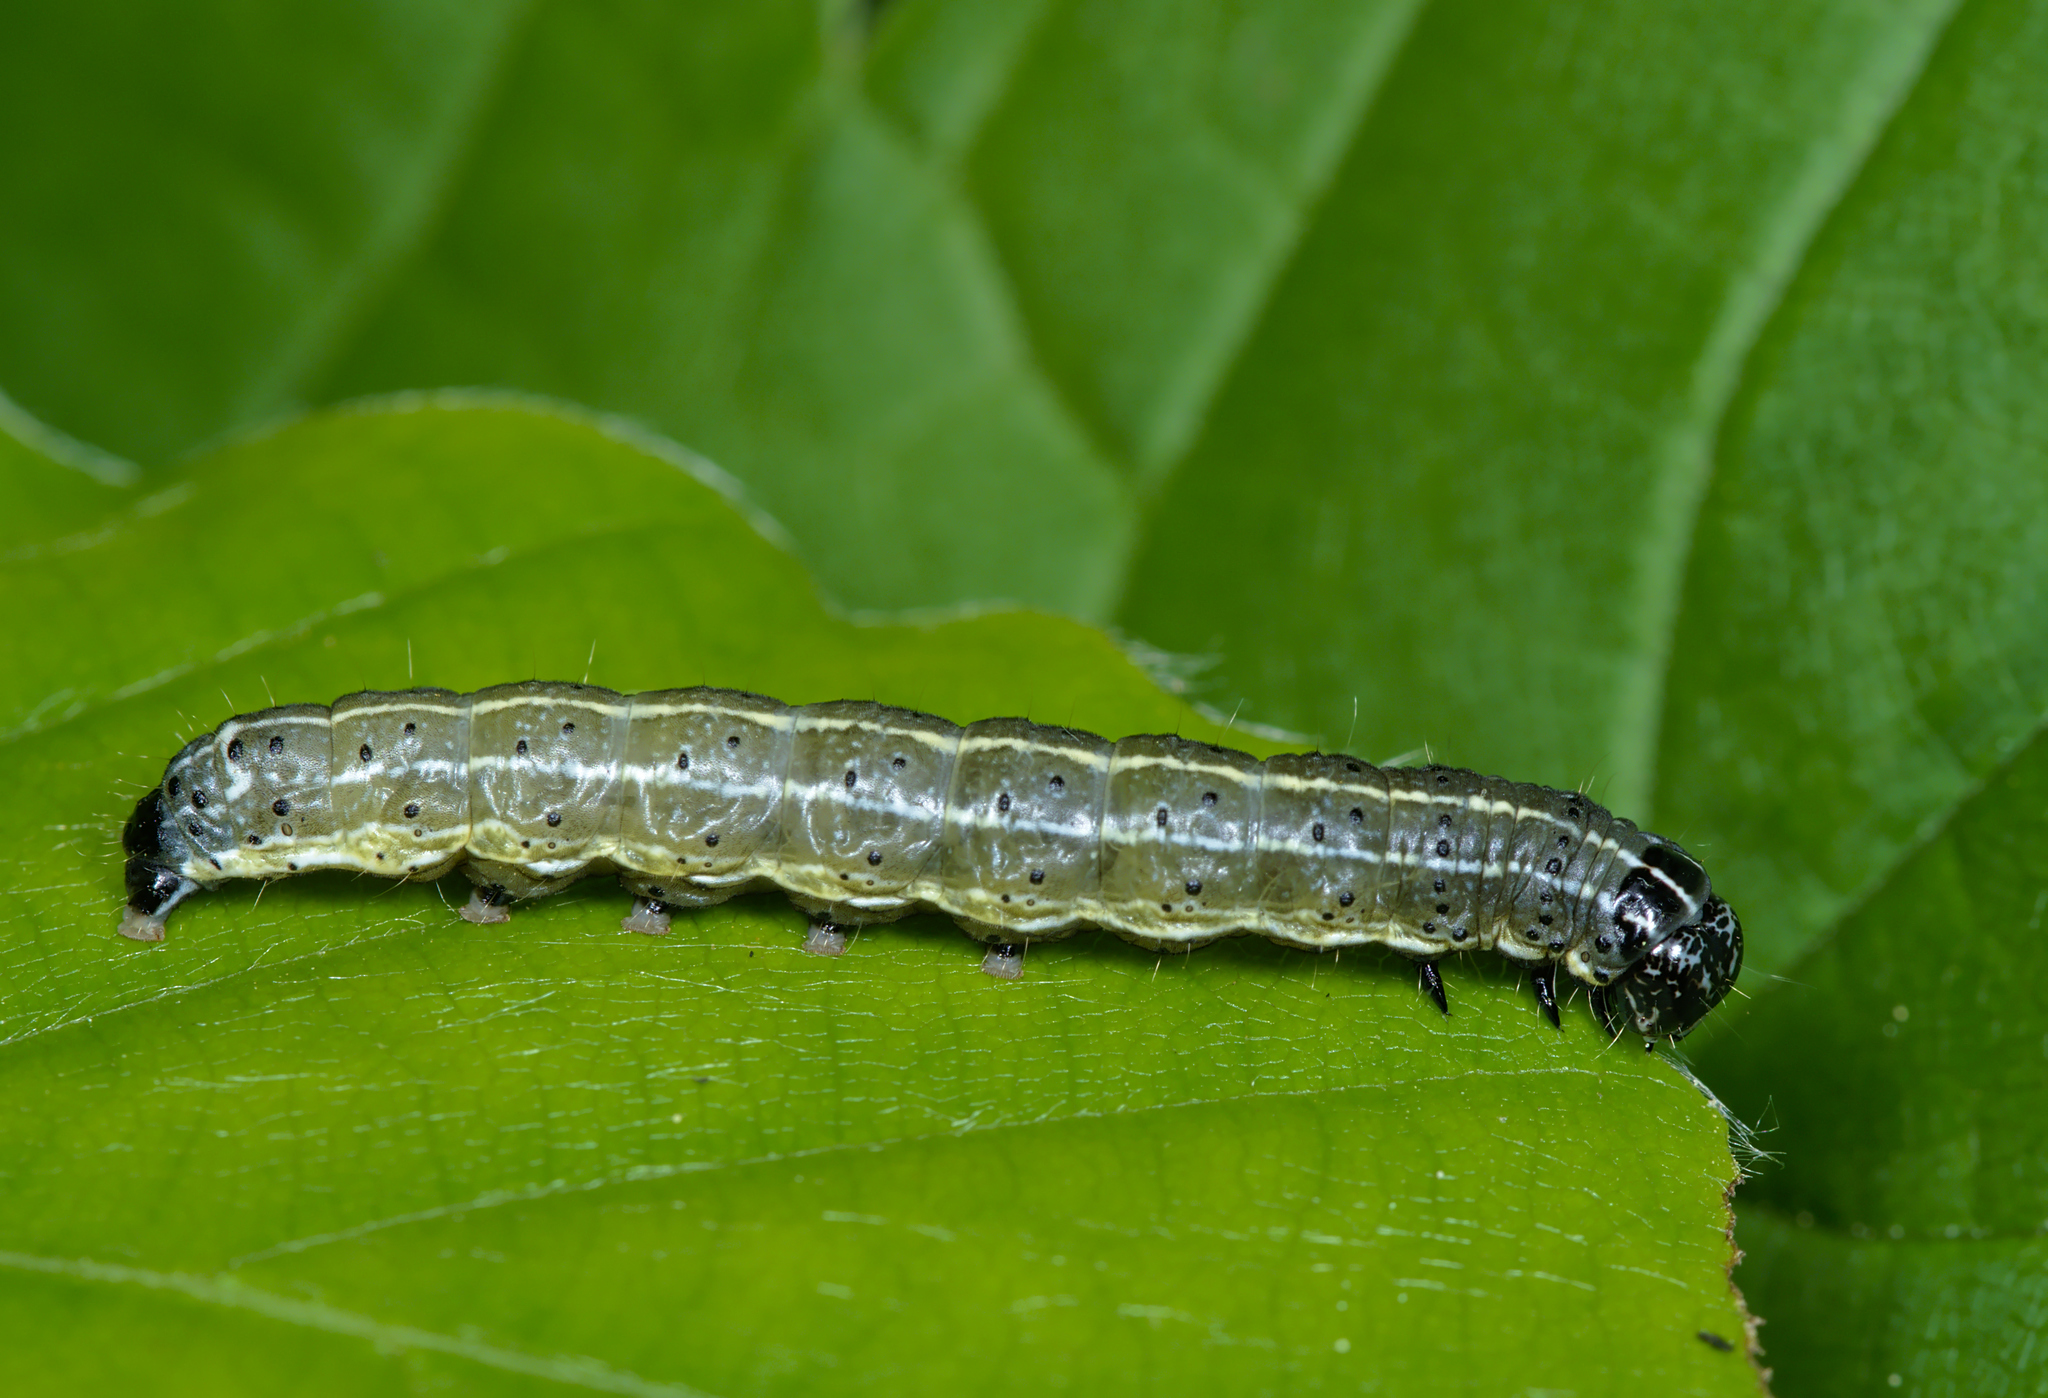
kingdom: Animalia
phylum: Arthropoda
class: Insecta
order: Lepidoptera
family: Noctuidae
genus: Orthosia
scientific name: Orthosia cruda
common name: Small quaker
